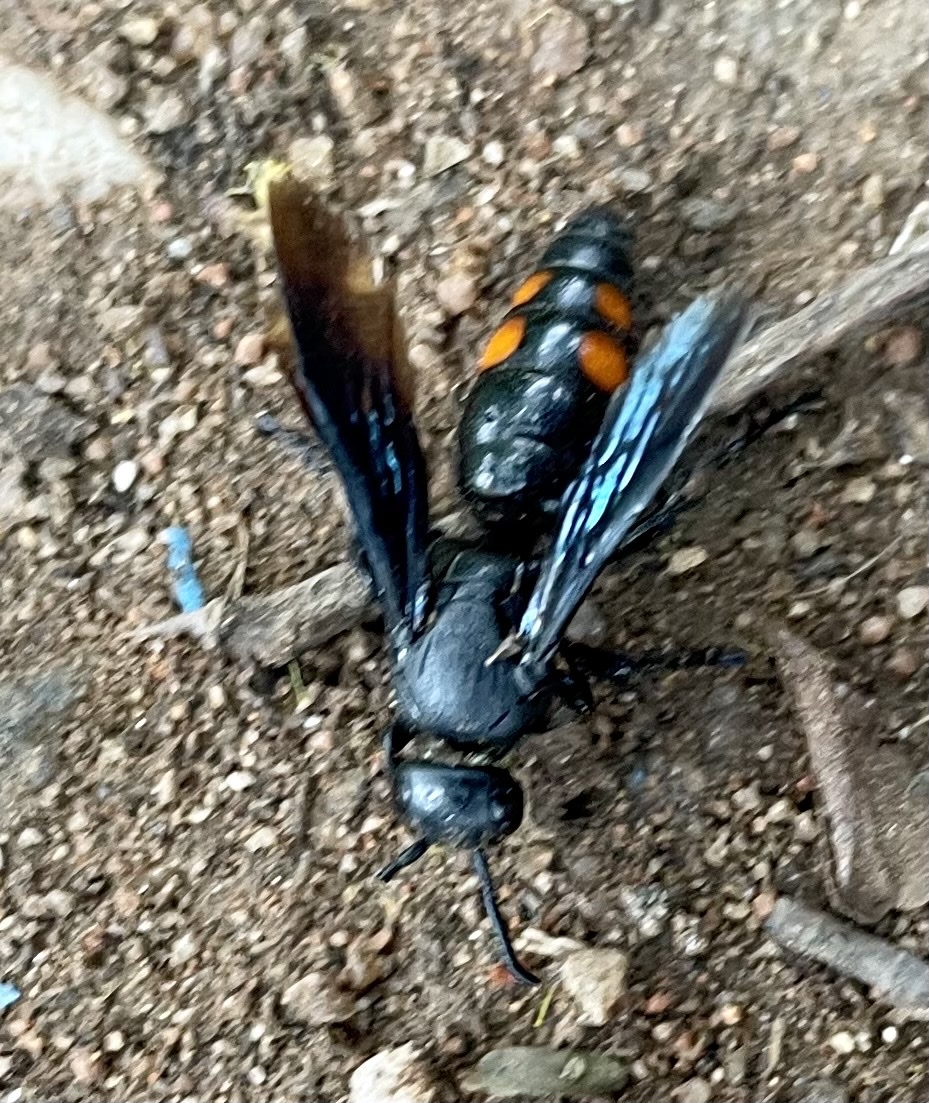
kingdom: Animalia
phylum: Arthropoda
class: Insecta
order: Hymenoptera
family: Scoliidae
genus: Scolia
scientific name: Scolia binotata
